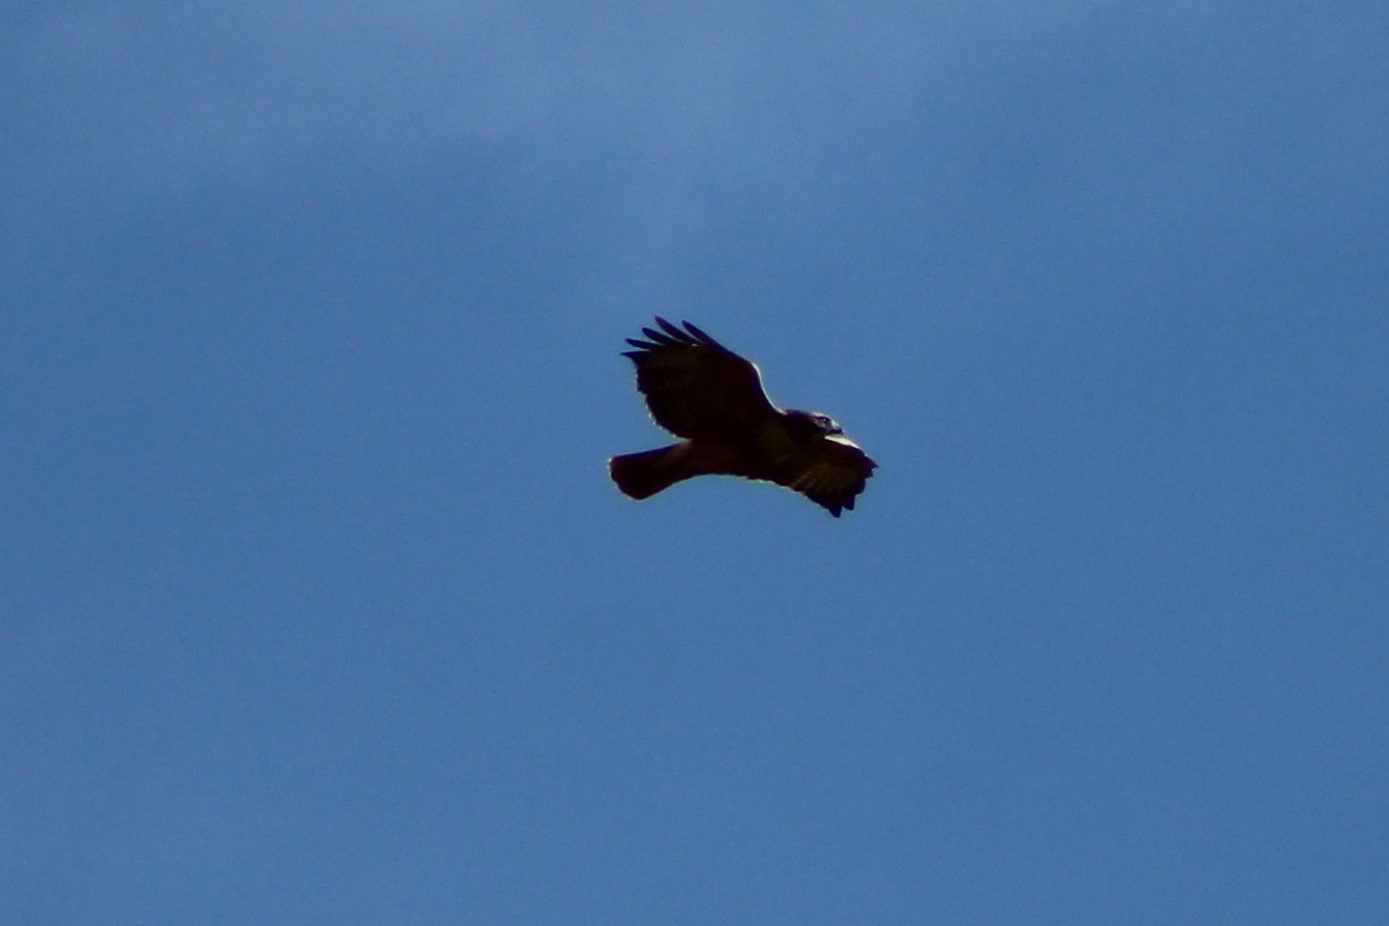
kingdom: Animalia
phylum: Chordata
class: Aves
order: Accipitriformes
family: Accipitridae
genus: Buteo
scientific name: Buteo jamaicensis
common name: Red-tailed hawk
